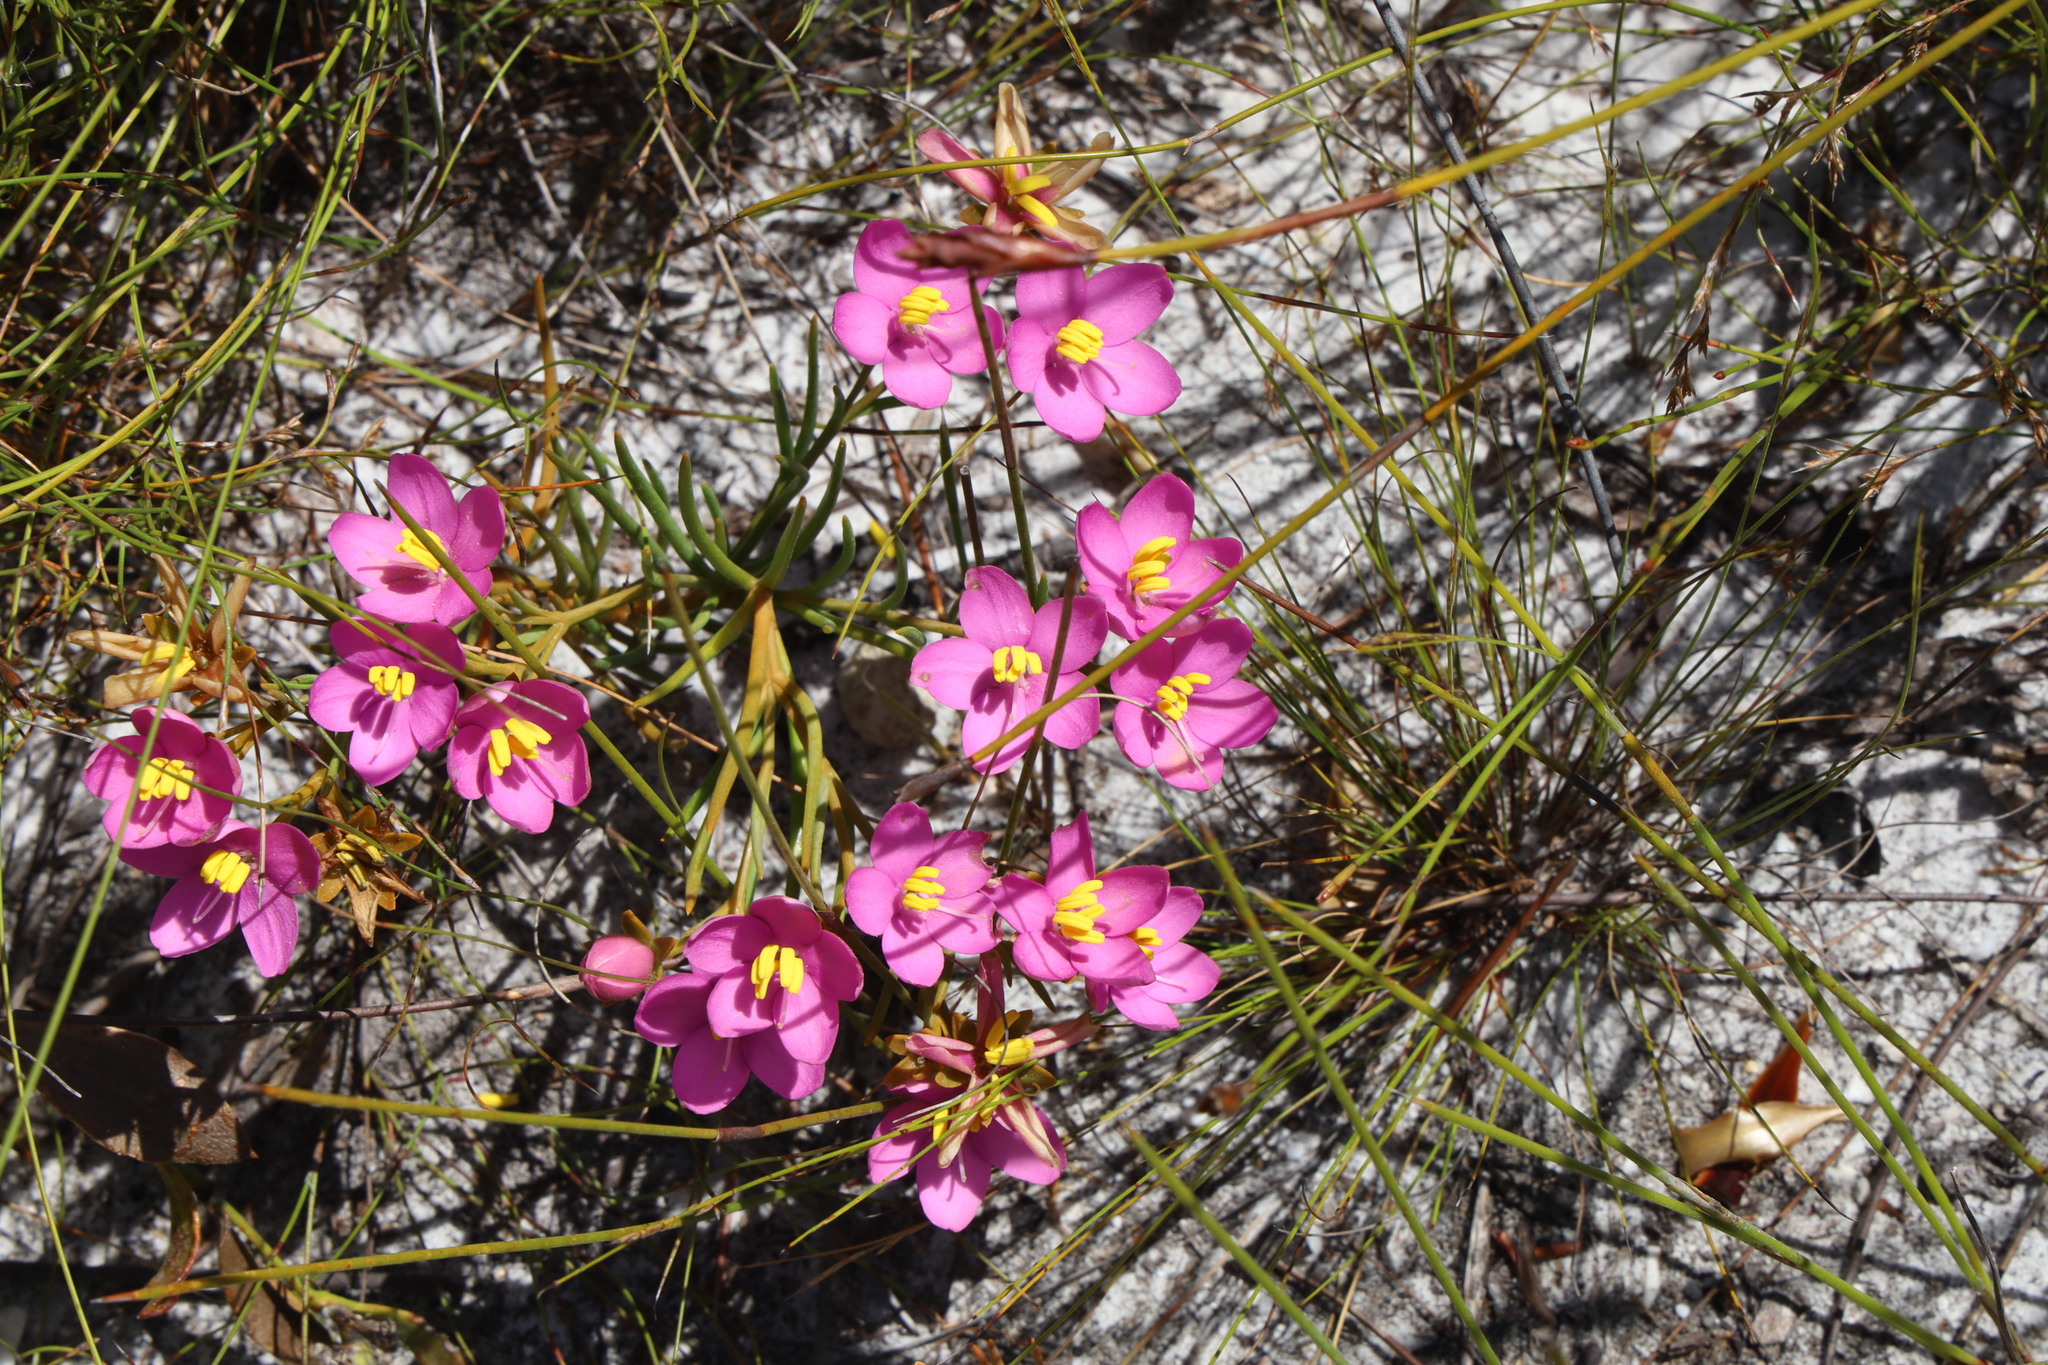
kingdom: Plantae
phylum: Tracheophyta
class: Magnoliopsida
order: Gentianales
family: Gentianaceae
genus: Chironia
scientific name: Chironia linoides
